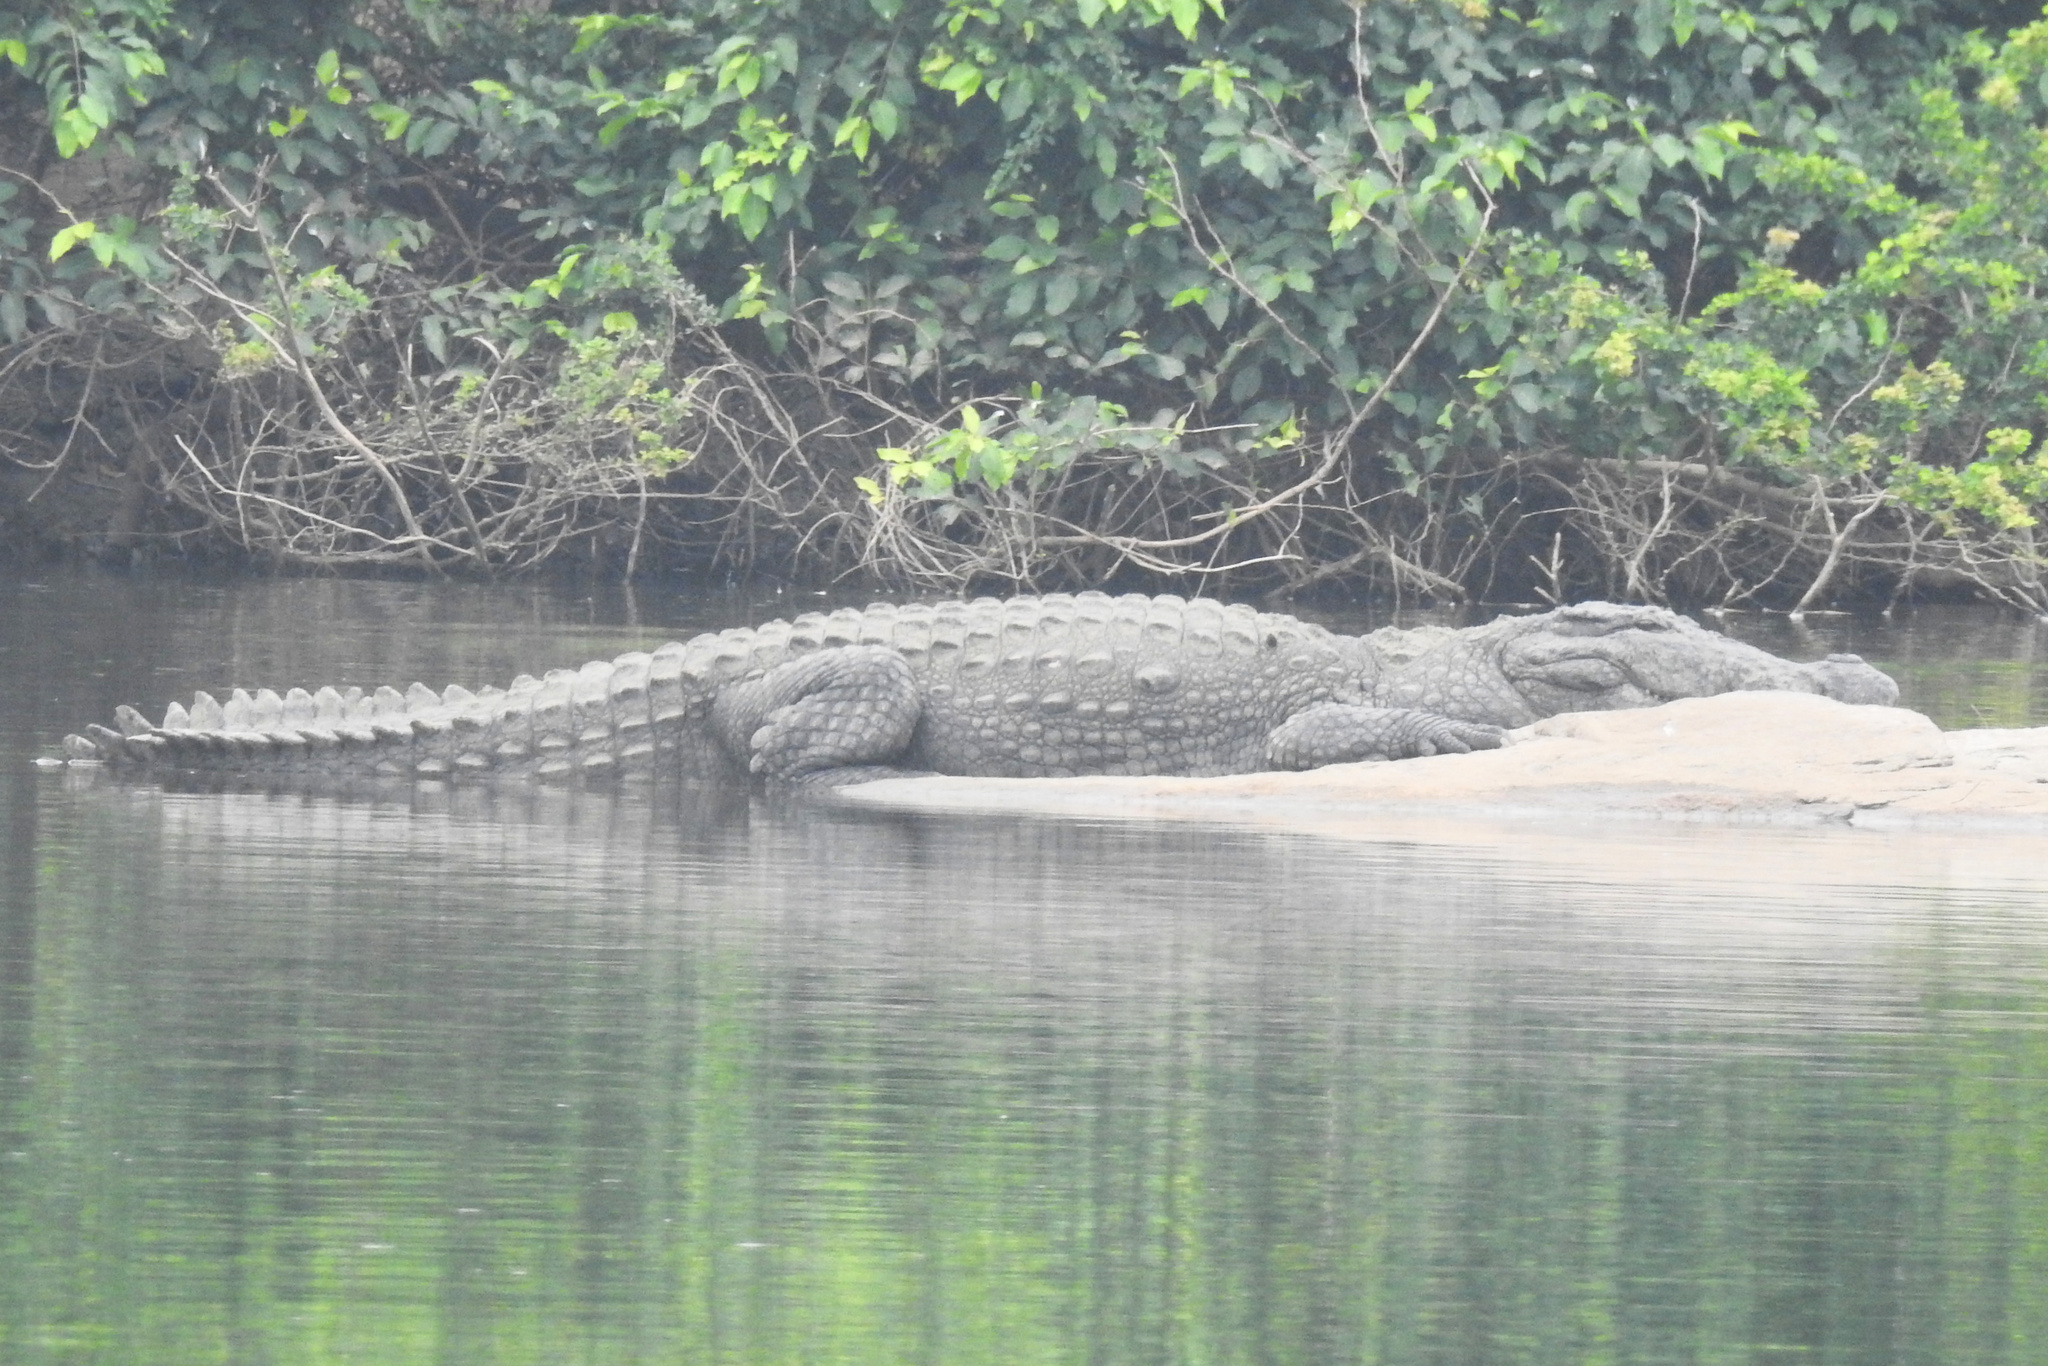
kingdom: Animalia
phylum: Chordata
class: Crocodylia
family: Crocodylidae
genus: Crocodylus
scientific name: Crocodylus palustris
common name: Mugger crocodile
